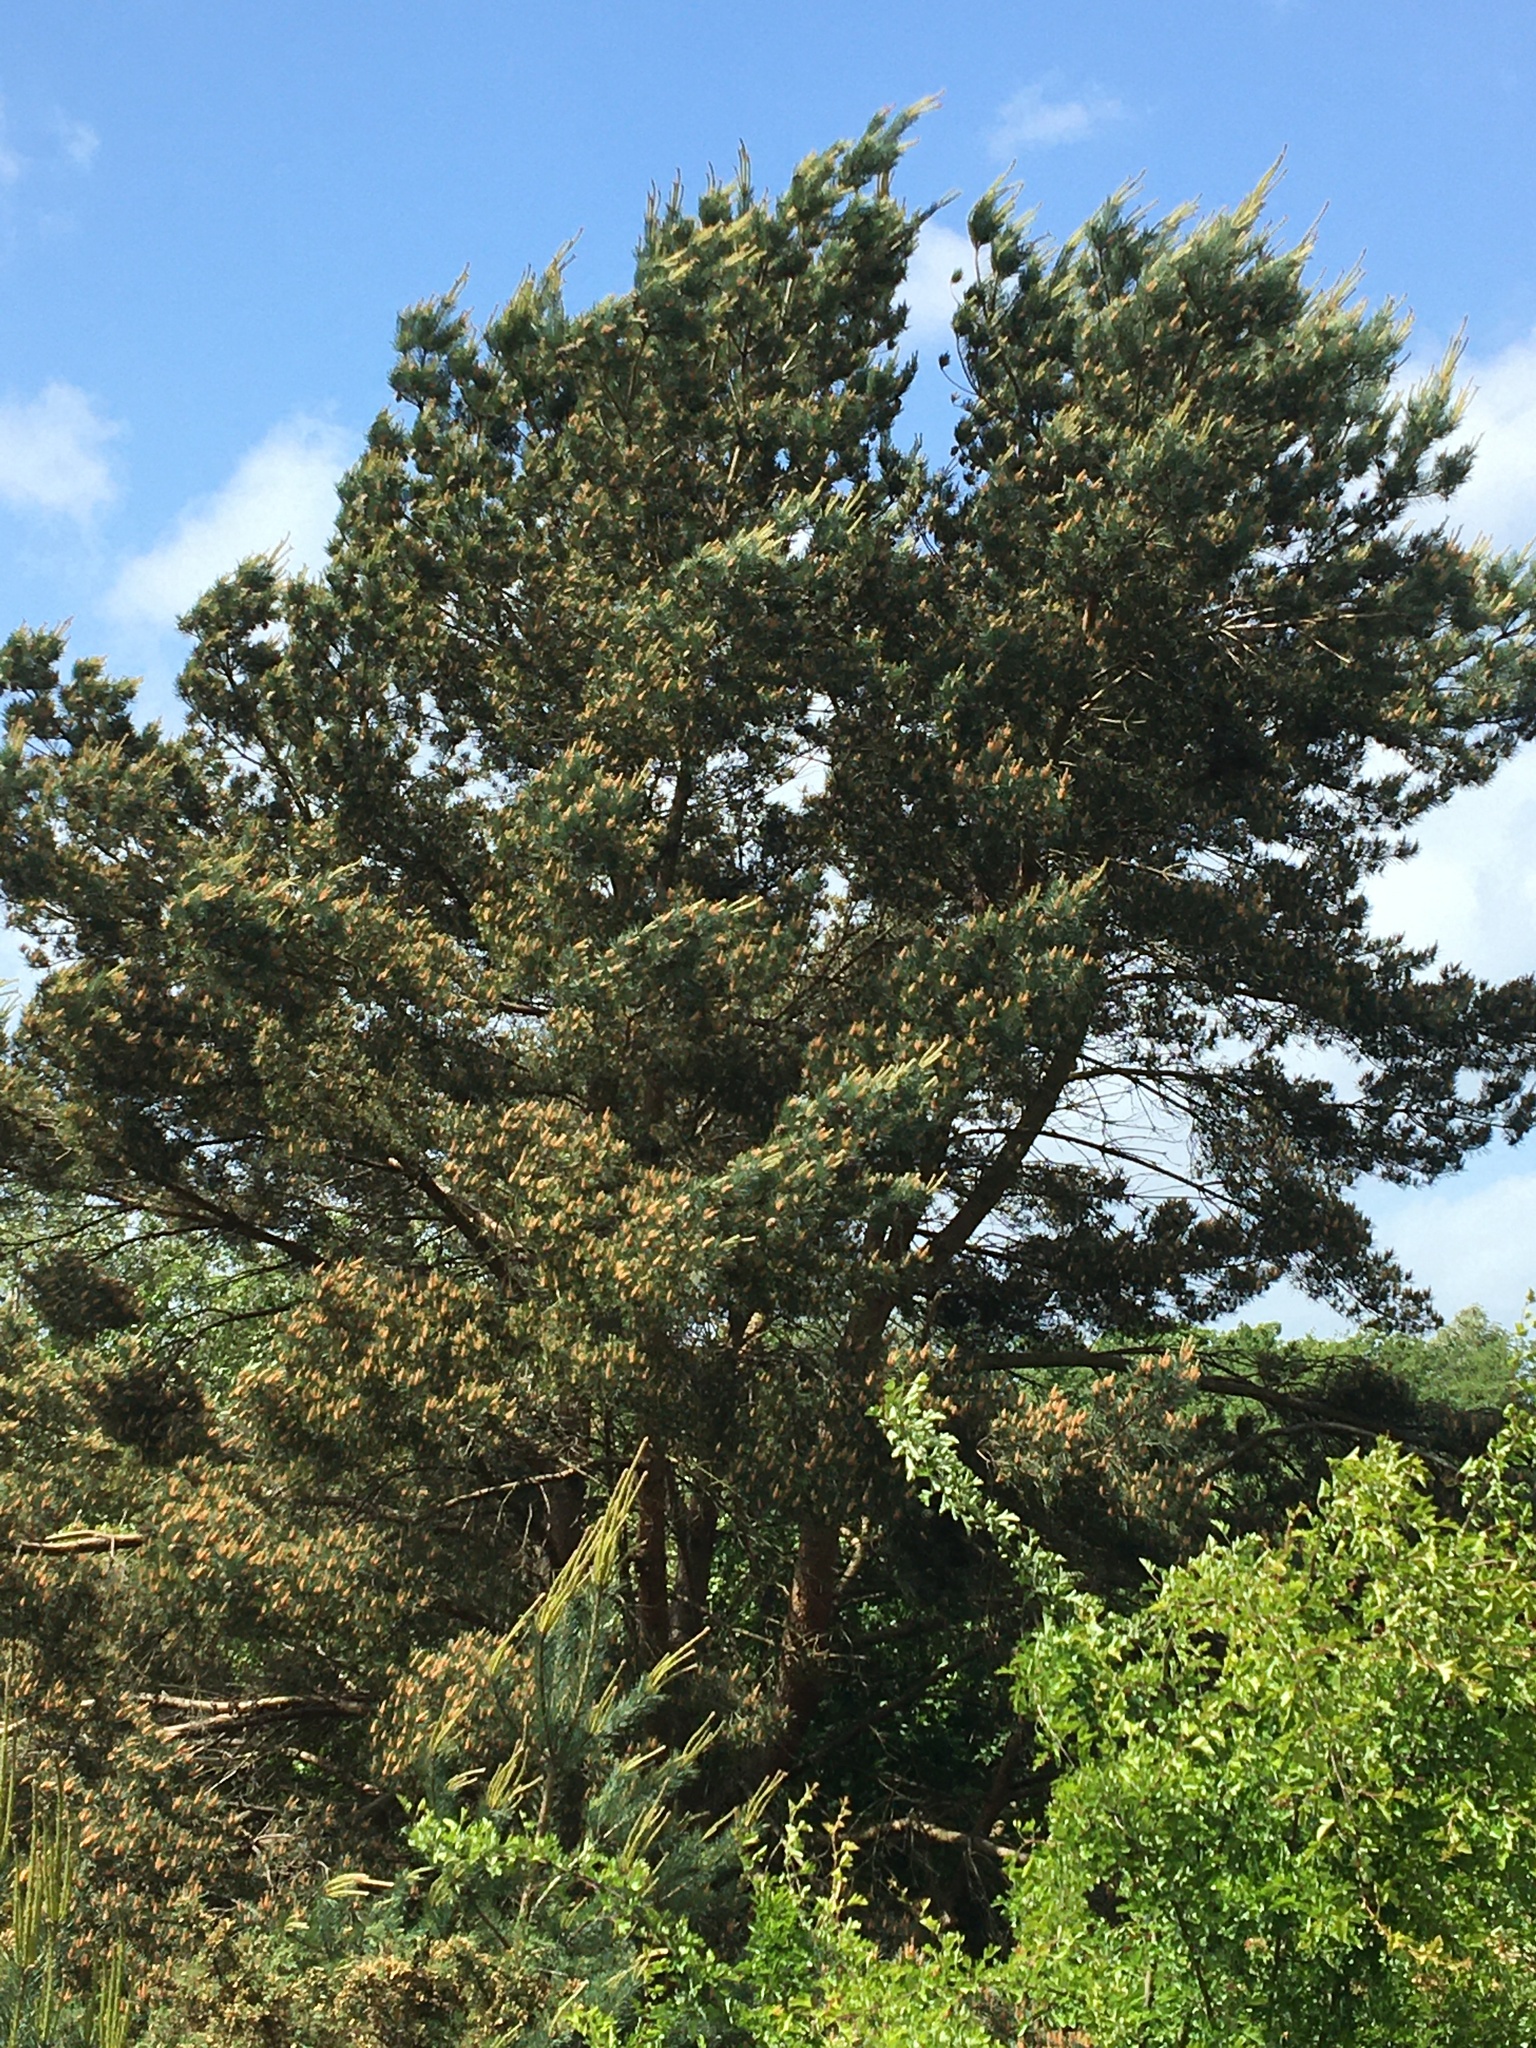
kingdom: Plantae
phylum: Tracheophyta
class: Pinopsida
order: Pinales
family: Pinaceae
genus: Pinus
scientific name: Pinus sylvestris
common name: Scots pine
